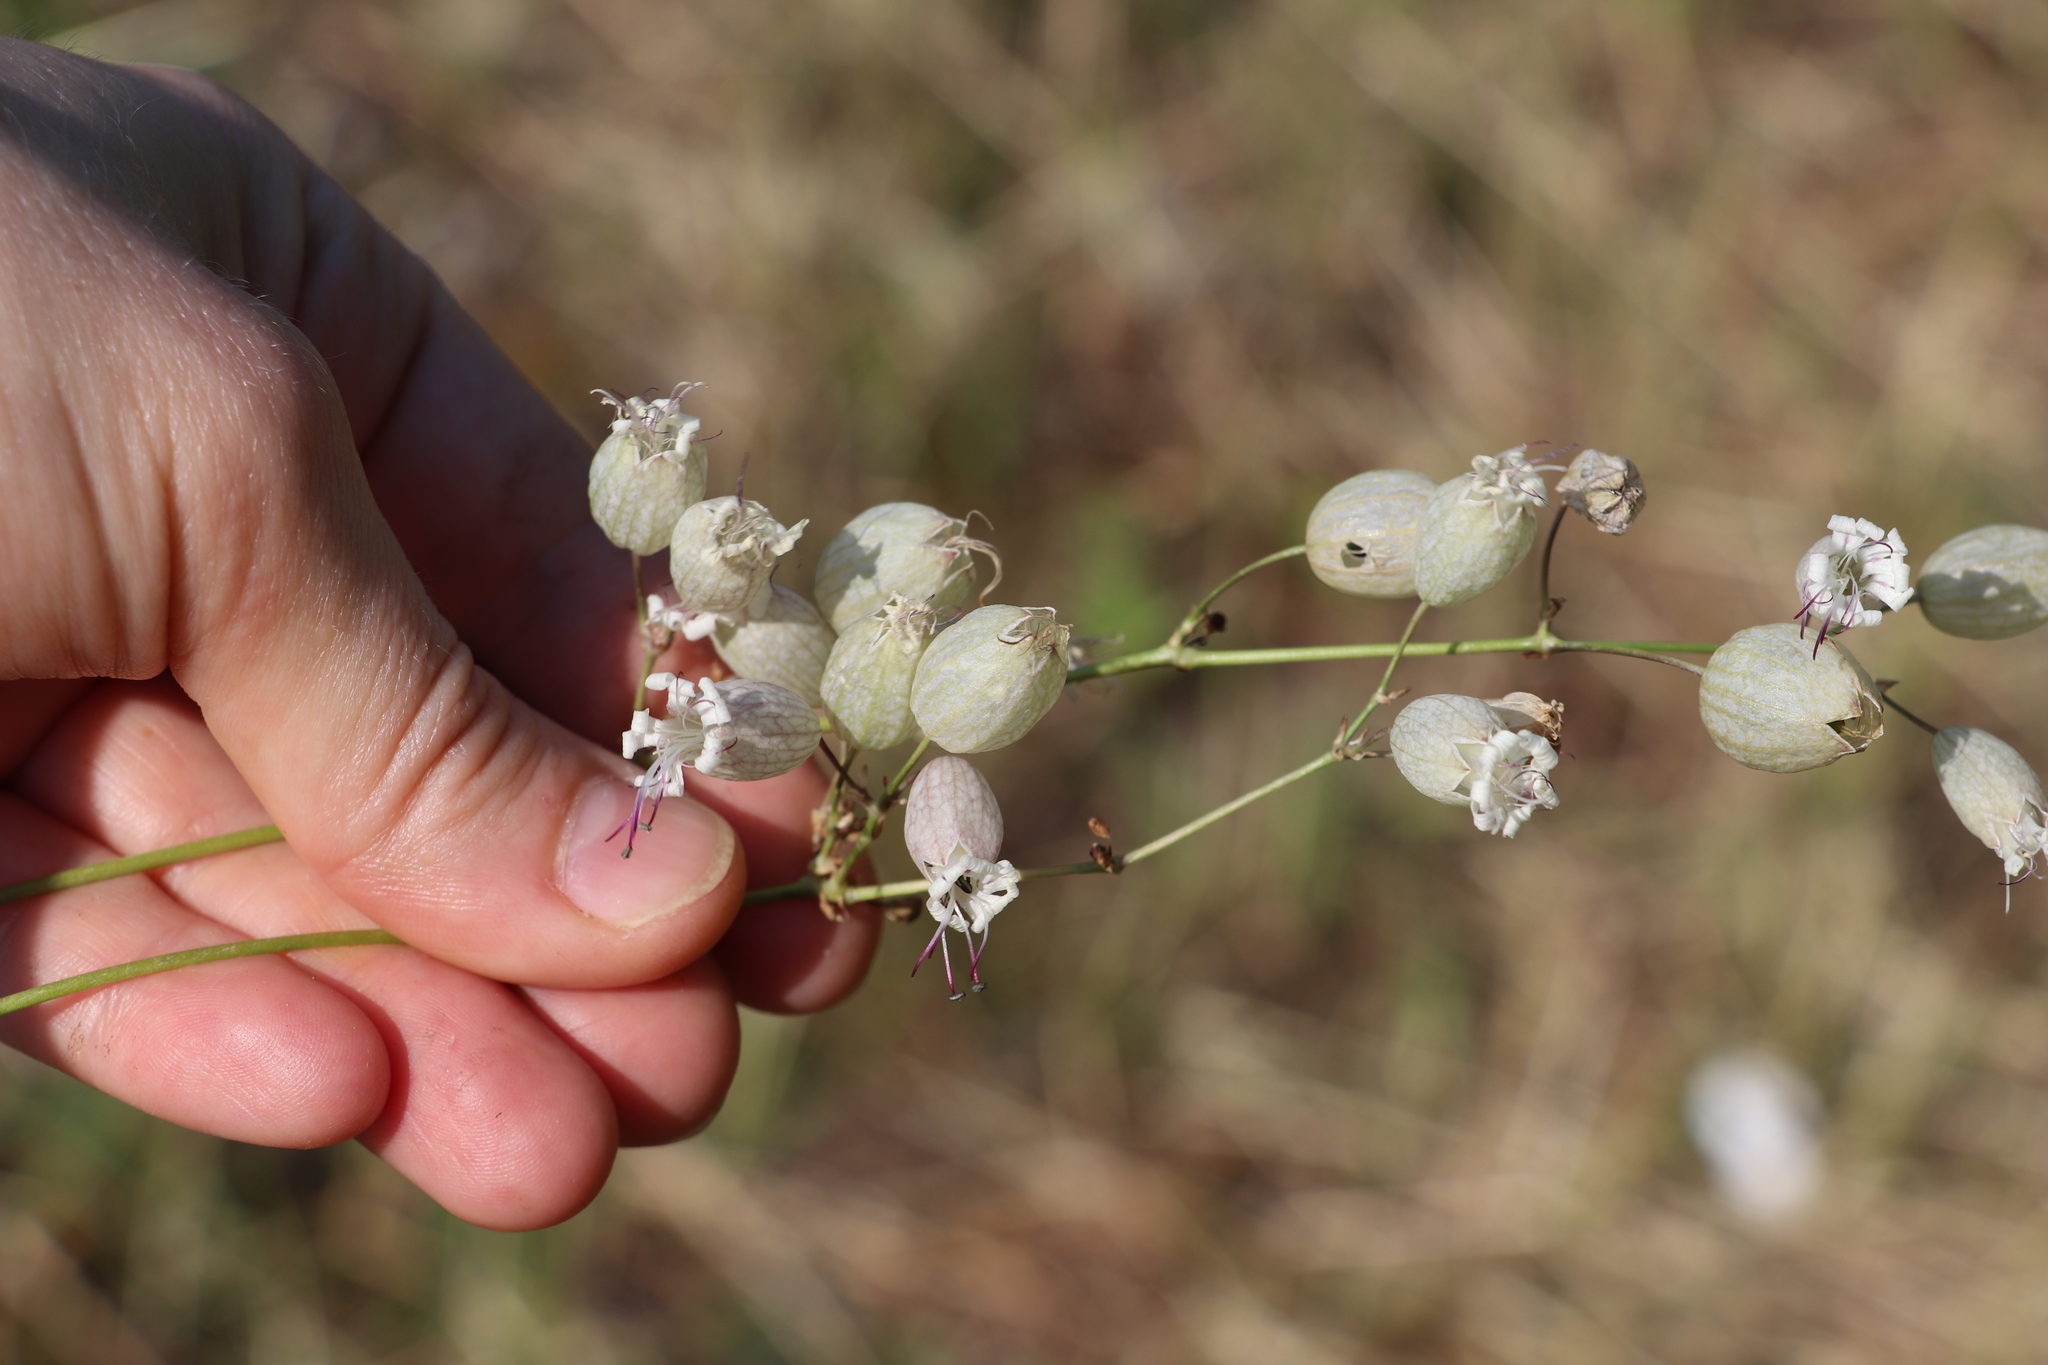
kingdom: Plantae
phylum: Tracheophyta
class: Magnoliopsida
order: Caryophyllales
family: Caryophyllaceae
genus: Silene
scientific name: Silene vulgaris
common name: Bladder campion
